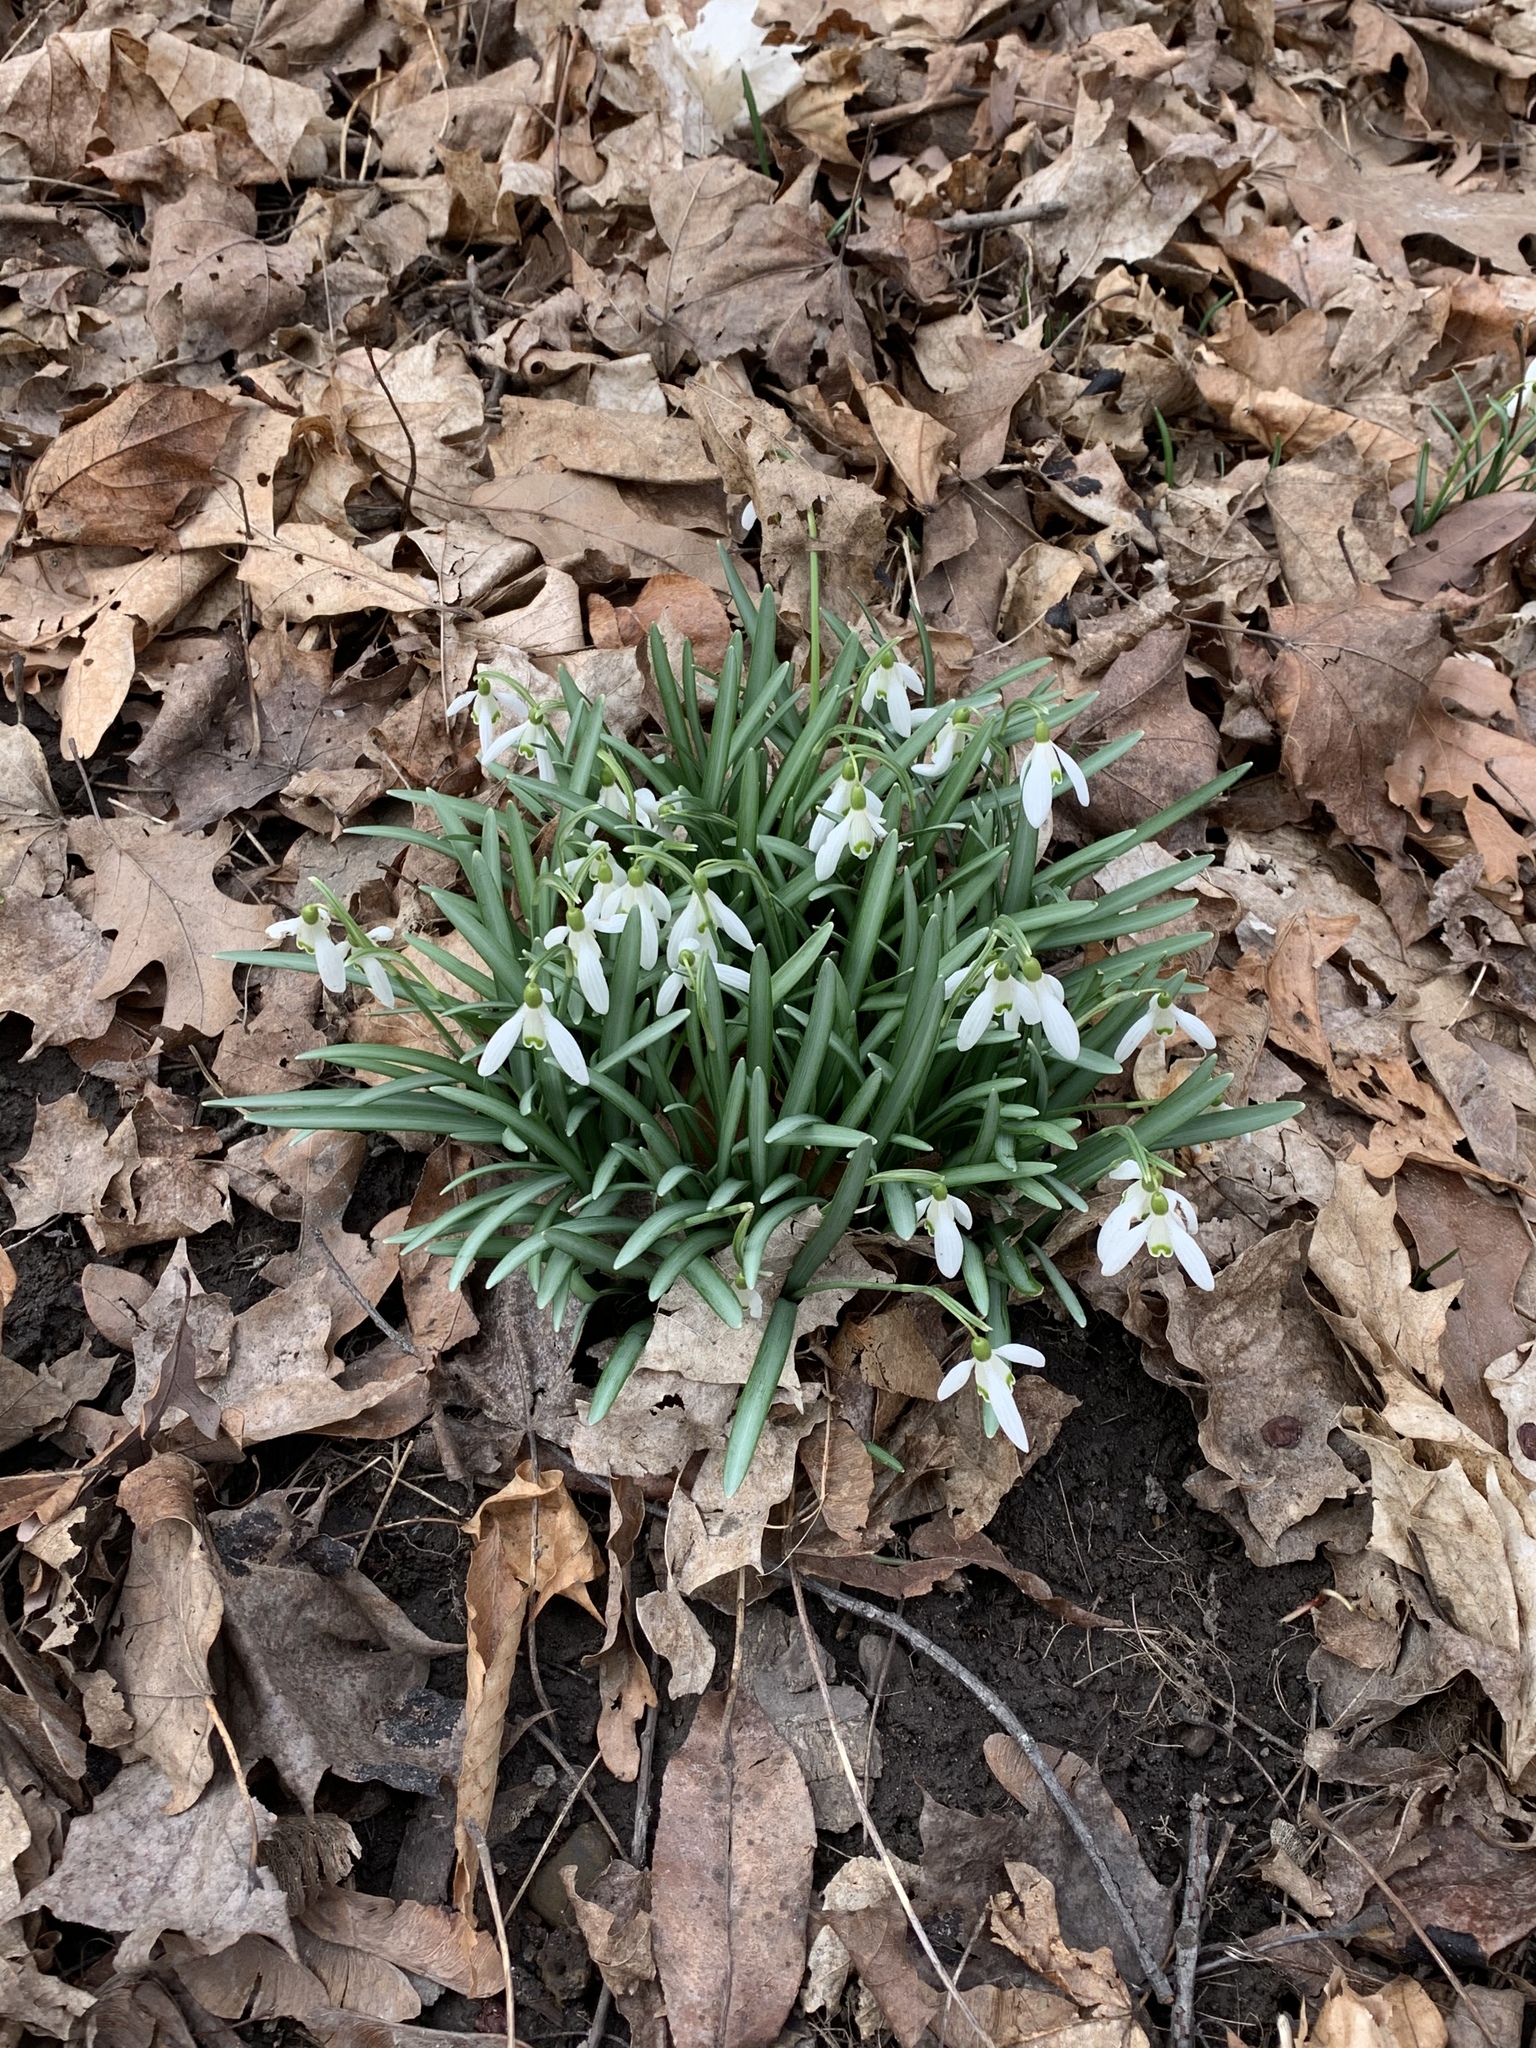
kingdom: Plantae
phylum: Tracheophyta
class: Liliopsida
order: Asparagales
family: Amaryllidaceae
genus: Galanthus
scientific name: Galanthus nivalis
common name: Snowdrop
